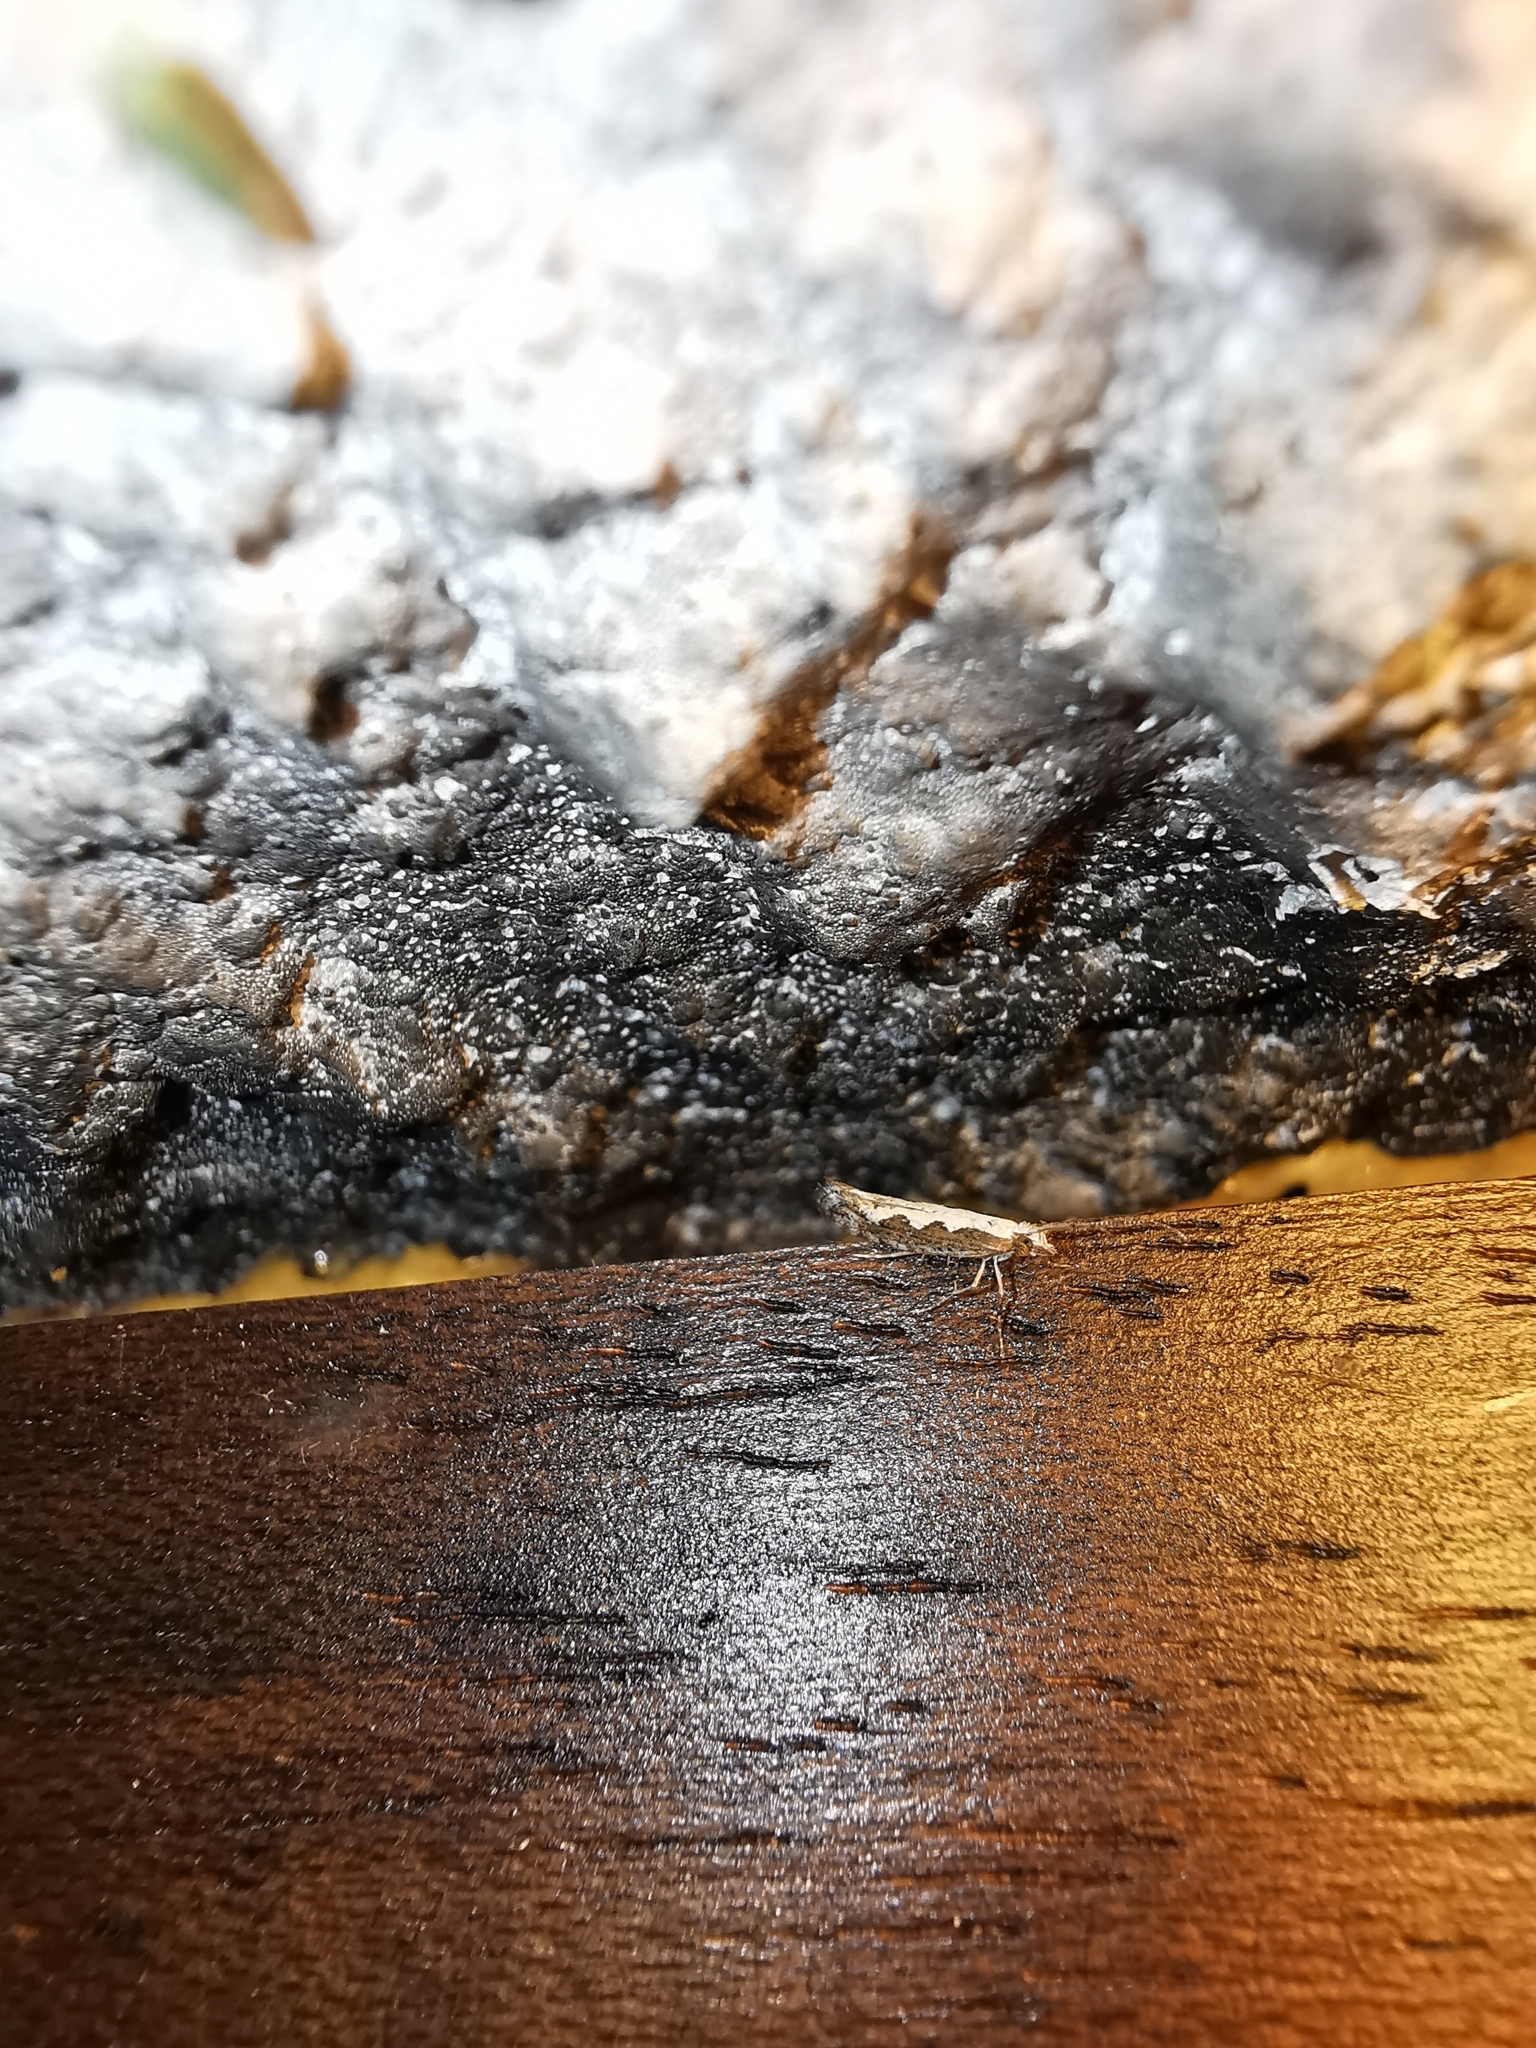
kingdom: Animalia
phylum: Arthropoda
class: Insecta
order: Lepidoptera
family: Plutellidae
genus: Plutella
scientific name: Plutella xylostella
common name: Diamond-back moth
